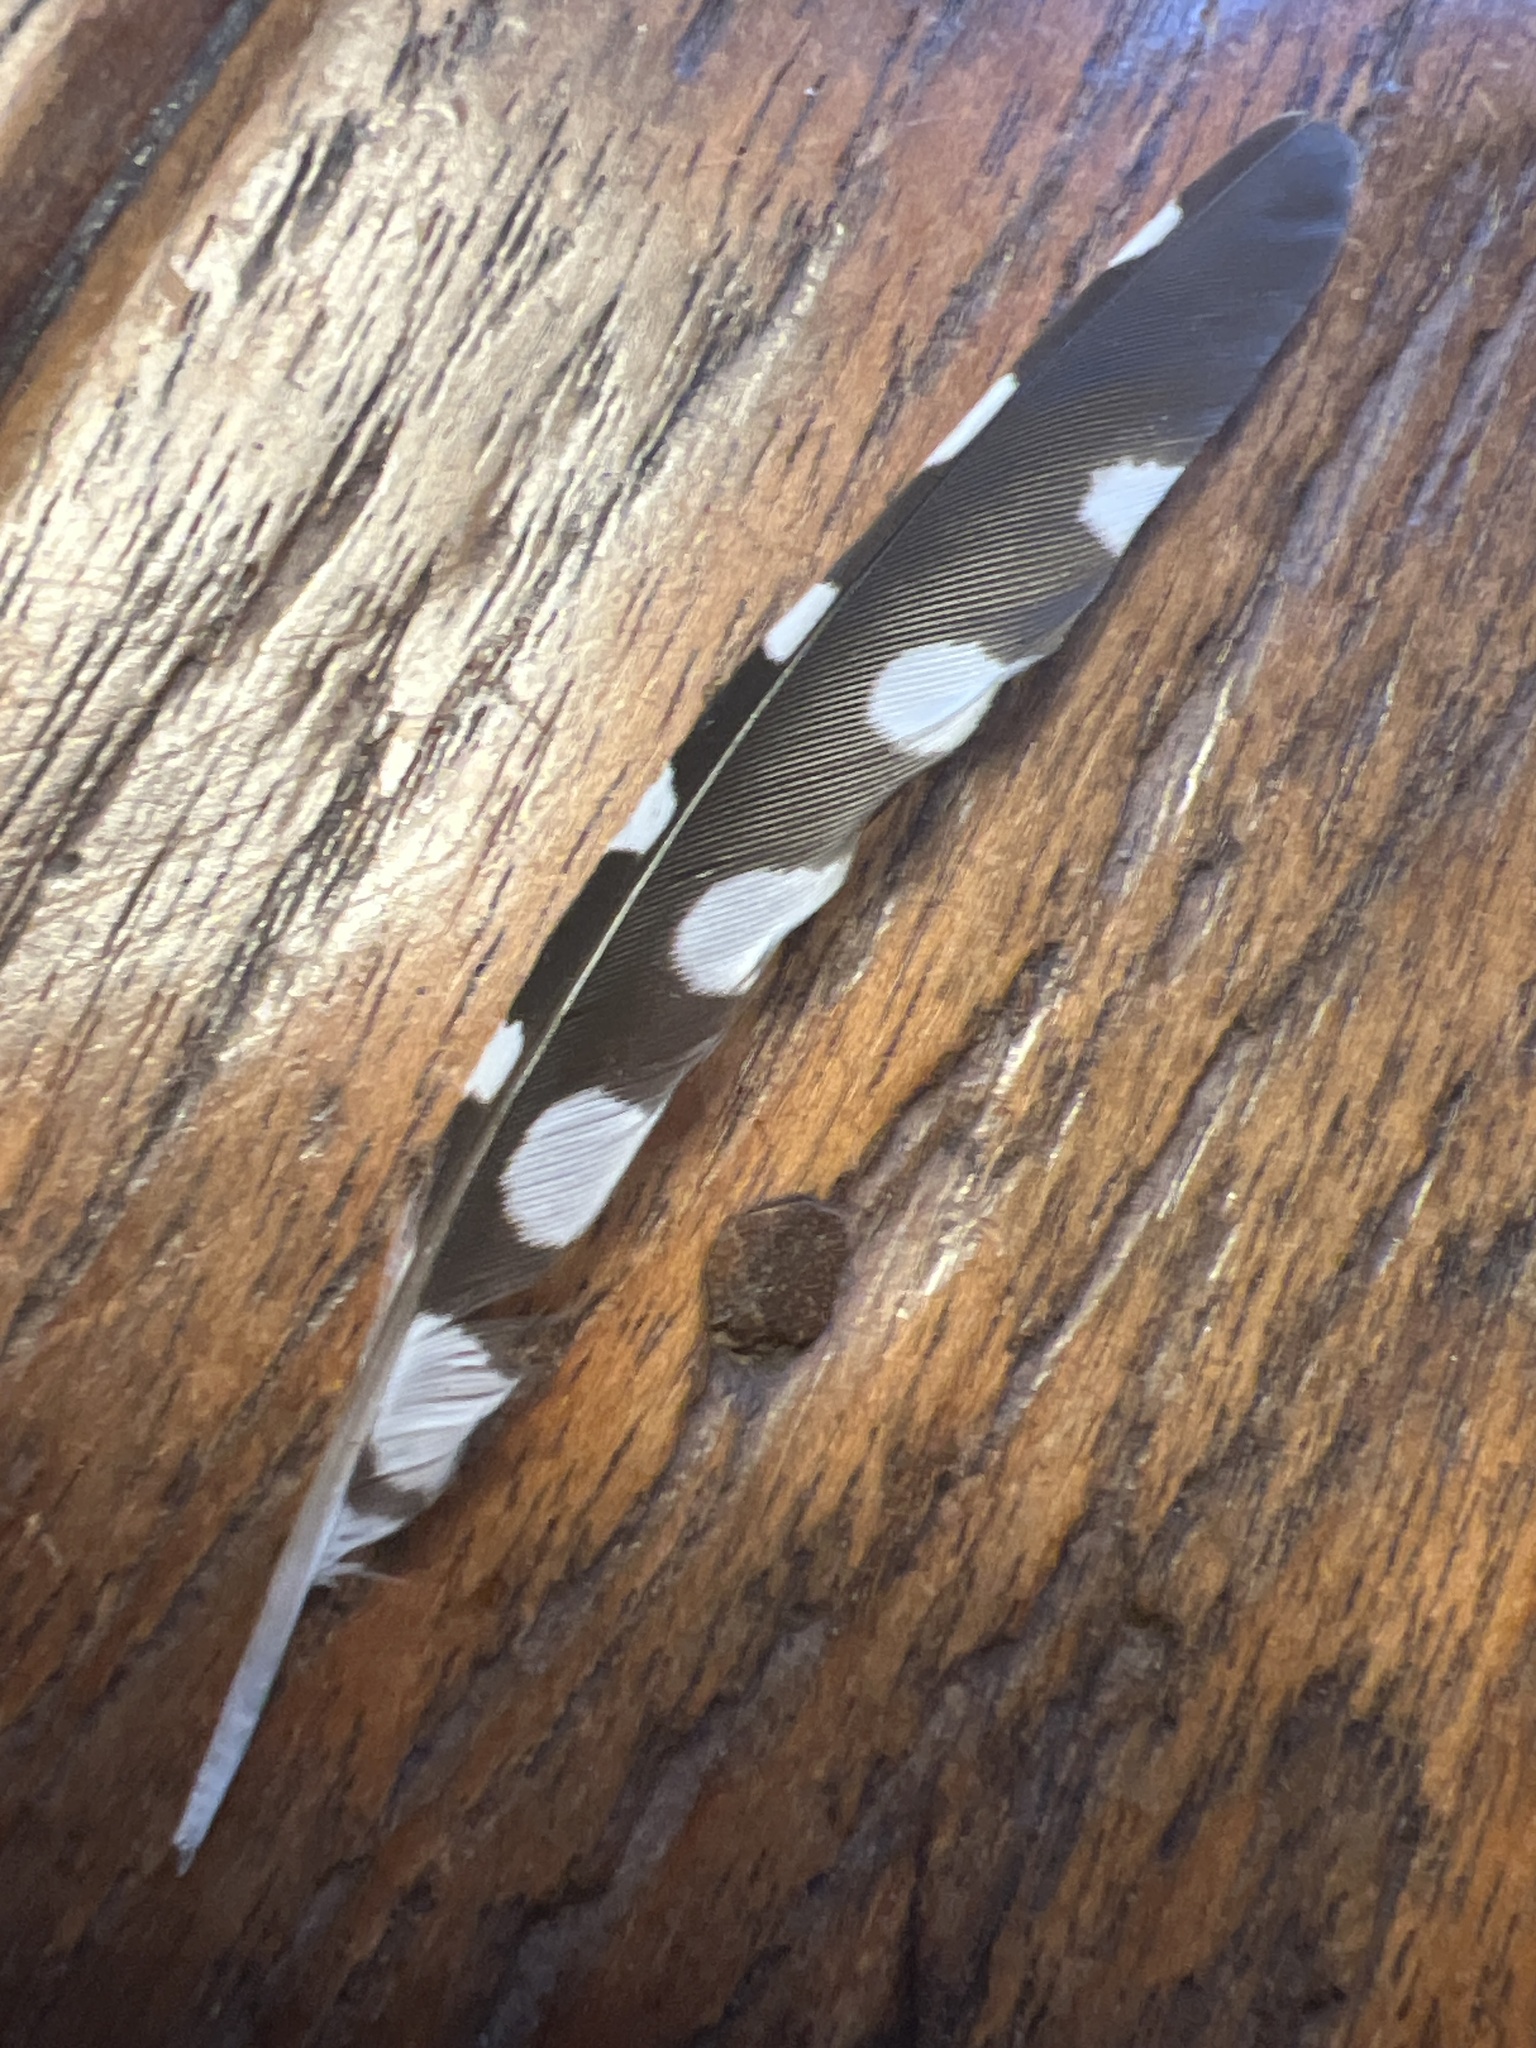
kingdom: Animalia
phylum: Chordata
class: Aves
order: Piciformes
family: Picidae
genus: Melanerpes
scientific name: Melanerpes carolinus
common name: Red-bellied woodpecker
